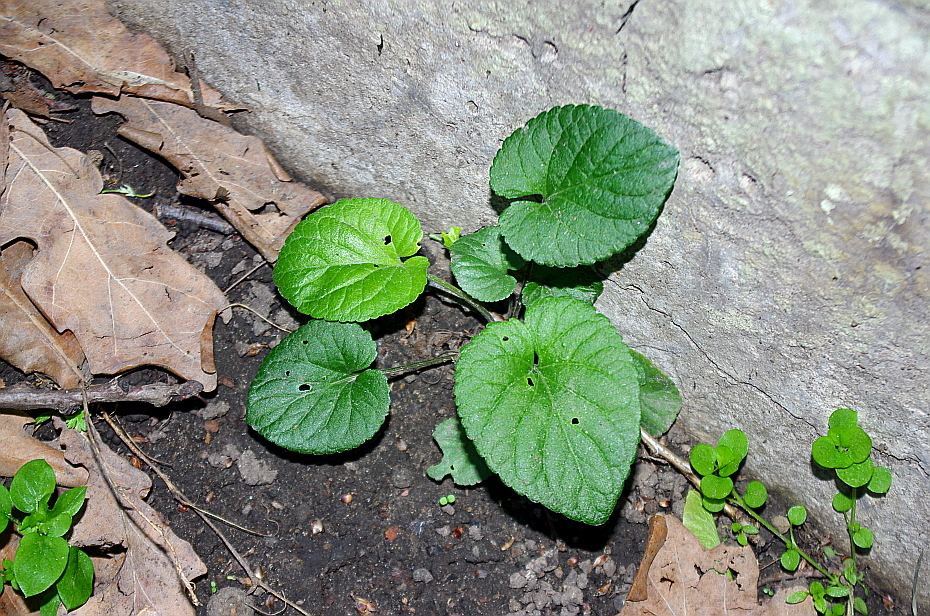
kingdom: Plantae
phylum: Tracheophyta
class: Magnoliopsida
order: Malpighiales
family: Violaceae
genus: Viola
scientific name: Viola odorata
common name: Sweet violet
